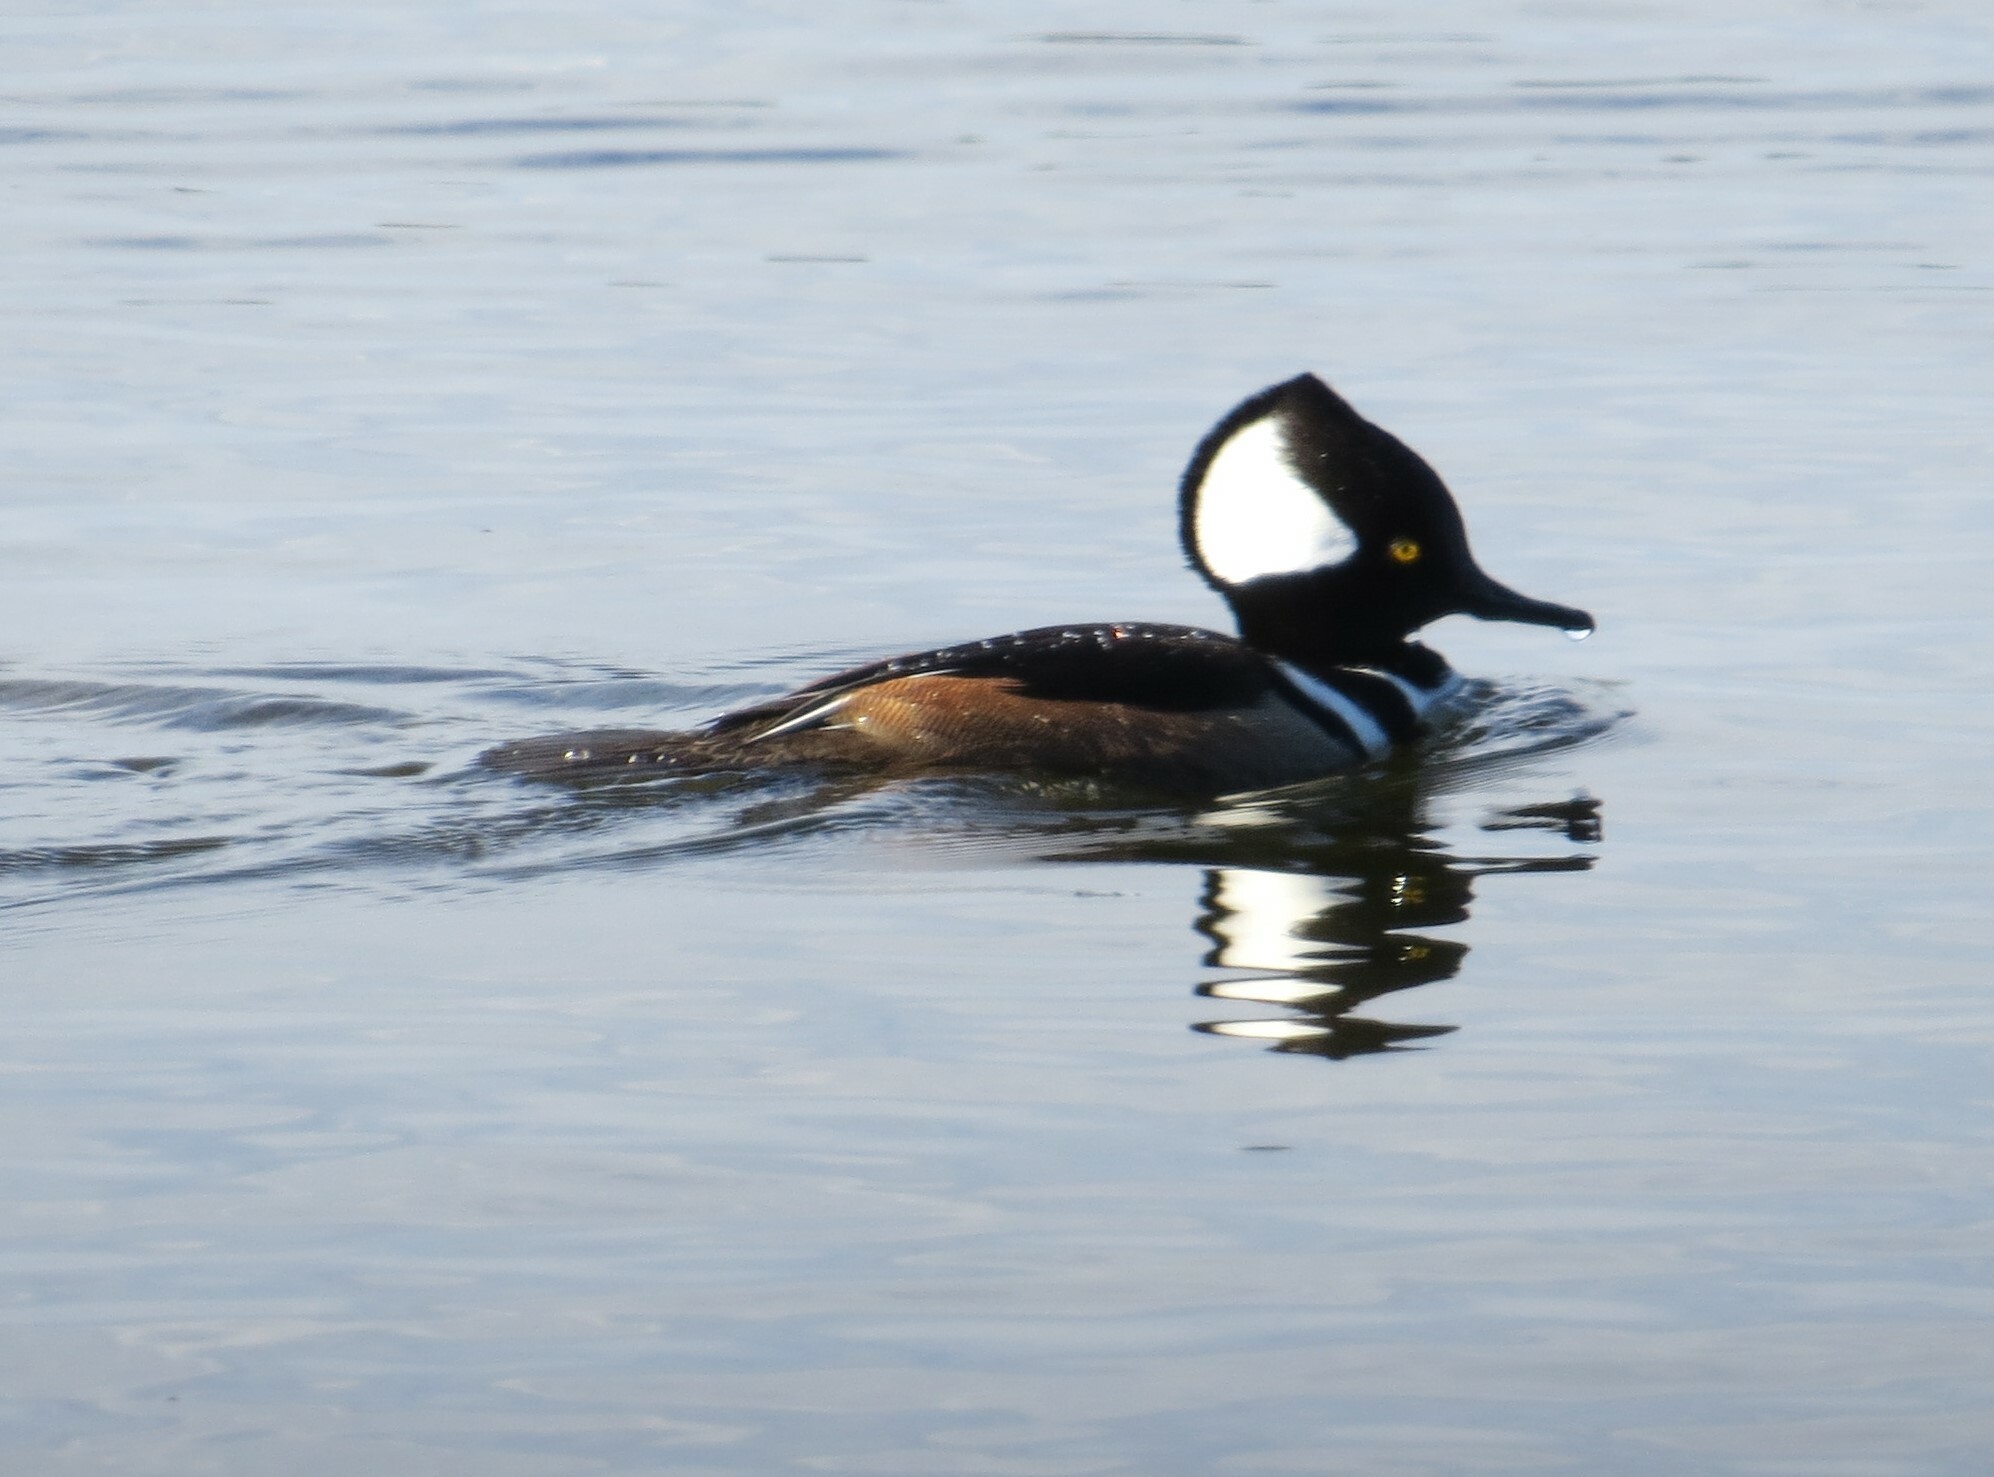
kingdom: Animalia
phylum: Chordata
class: Aves
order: Anseriformes
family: Anatidae
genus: Lophodytes
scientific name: Lophodytes cucullatus
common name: Hooded merganser
